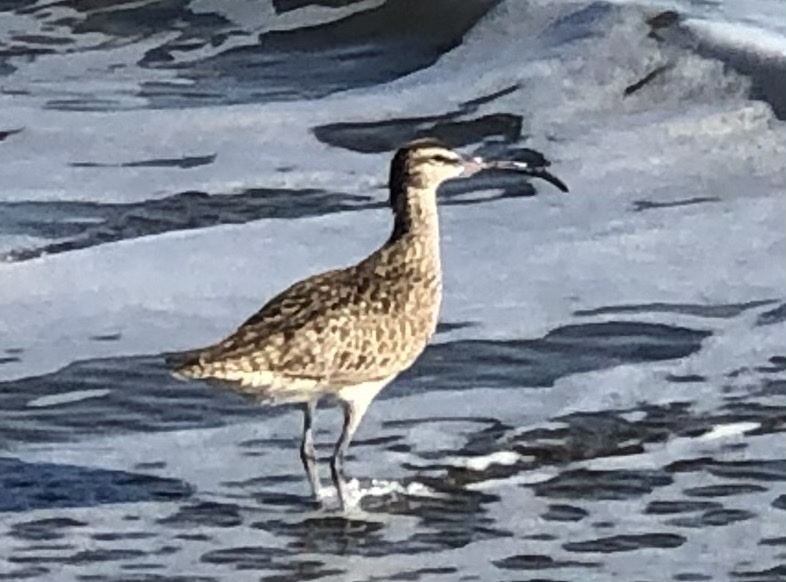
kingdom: Animalia
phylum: Chordata
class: Aves
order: Charadriiformes
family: Scolopacidae
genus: Numenius
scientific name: Numenius phaeopus
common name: Whimbrel
